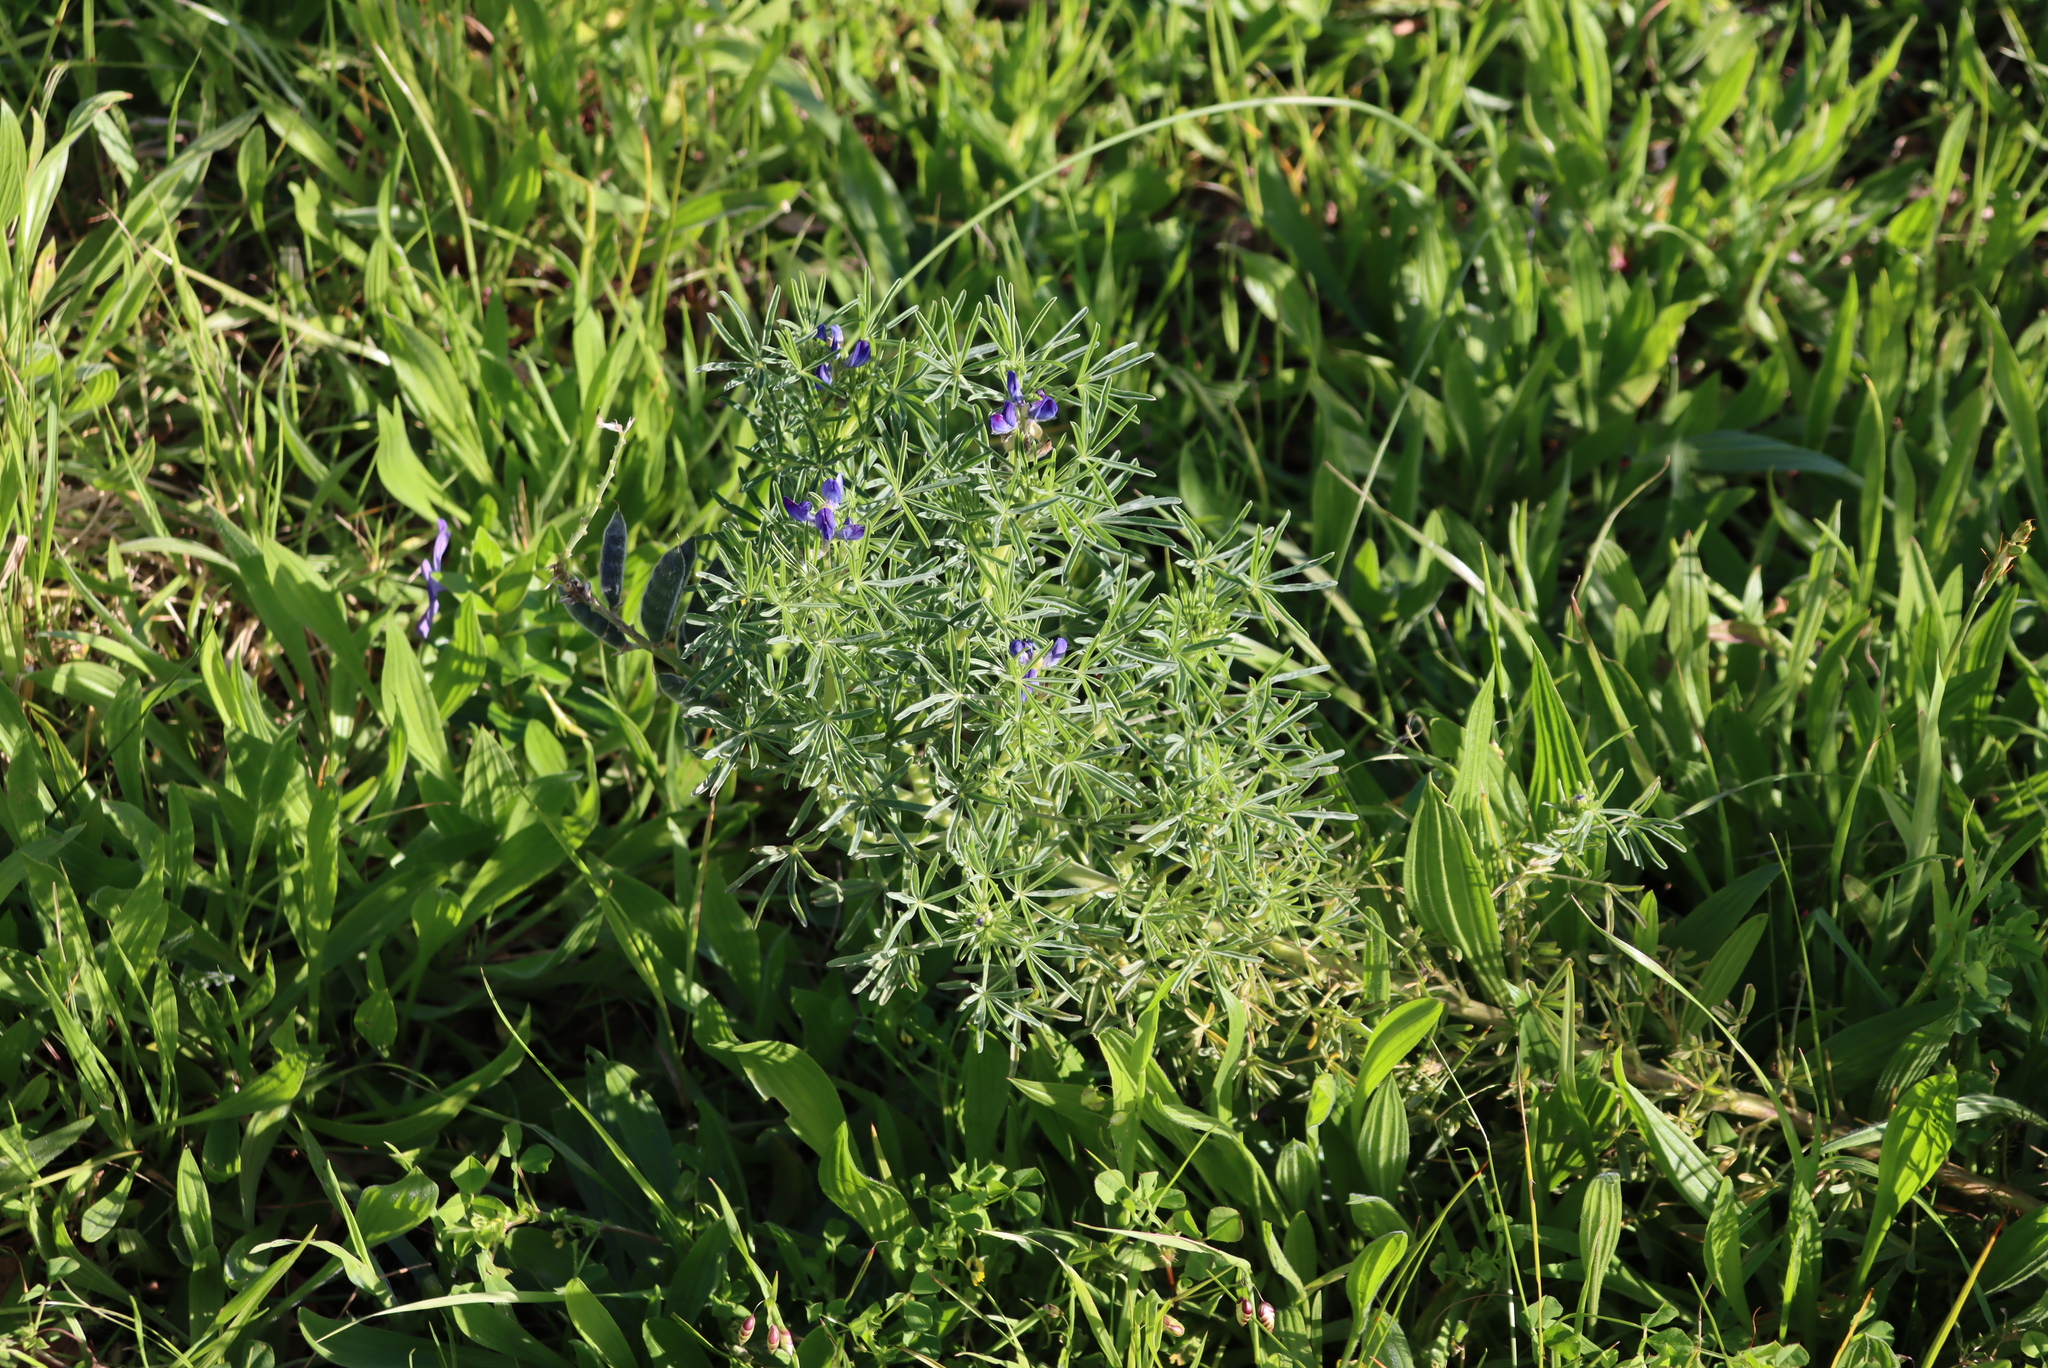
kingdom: Plantae
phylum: Tracheophyta
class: Magnoliopsida
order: Fabales
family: Fabaceae
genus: Lupinus
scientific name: Lupinus angustifolius
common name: Narrow-leaved lupin
